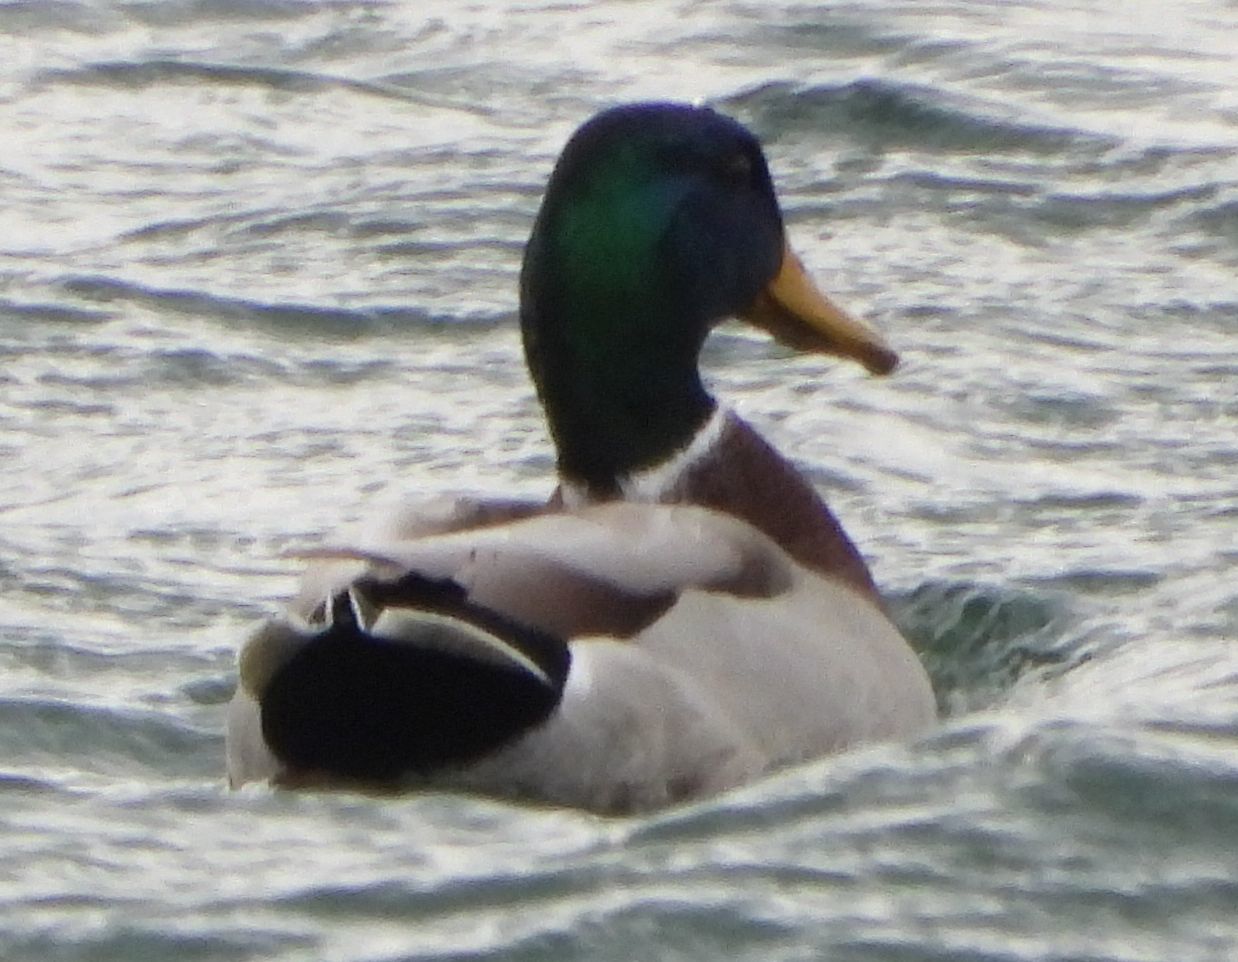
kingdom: Animalia
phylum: Chordata
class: Aves
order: Anseriformes
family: Anatidae
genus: Anas
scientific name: Anas platyrhynchos
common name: Mallard
